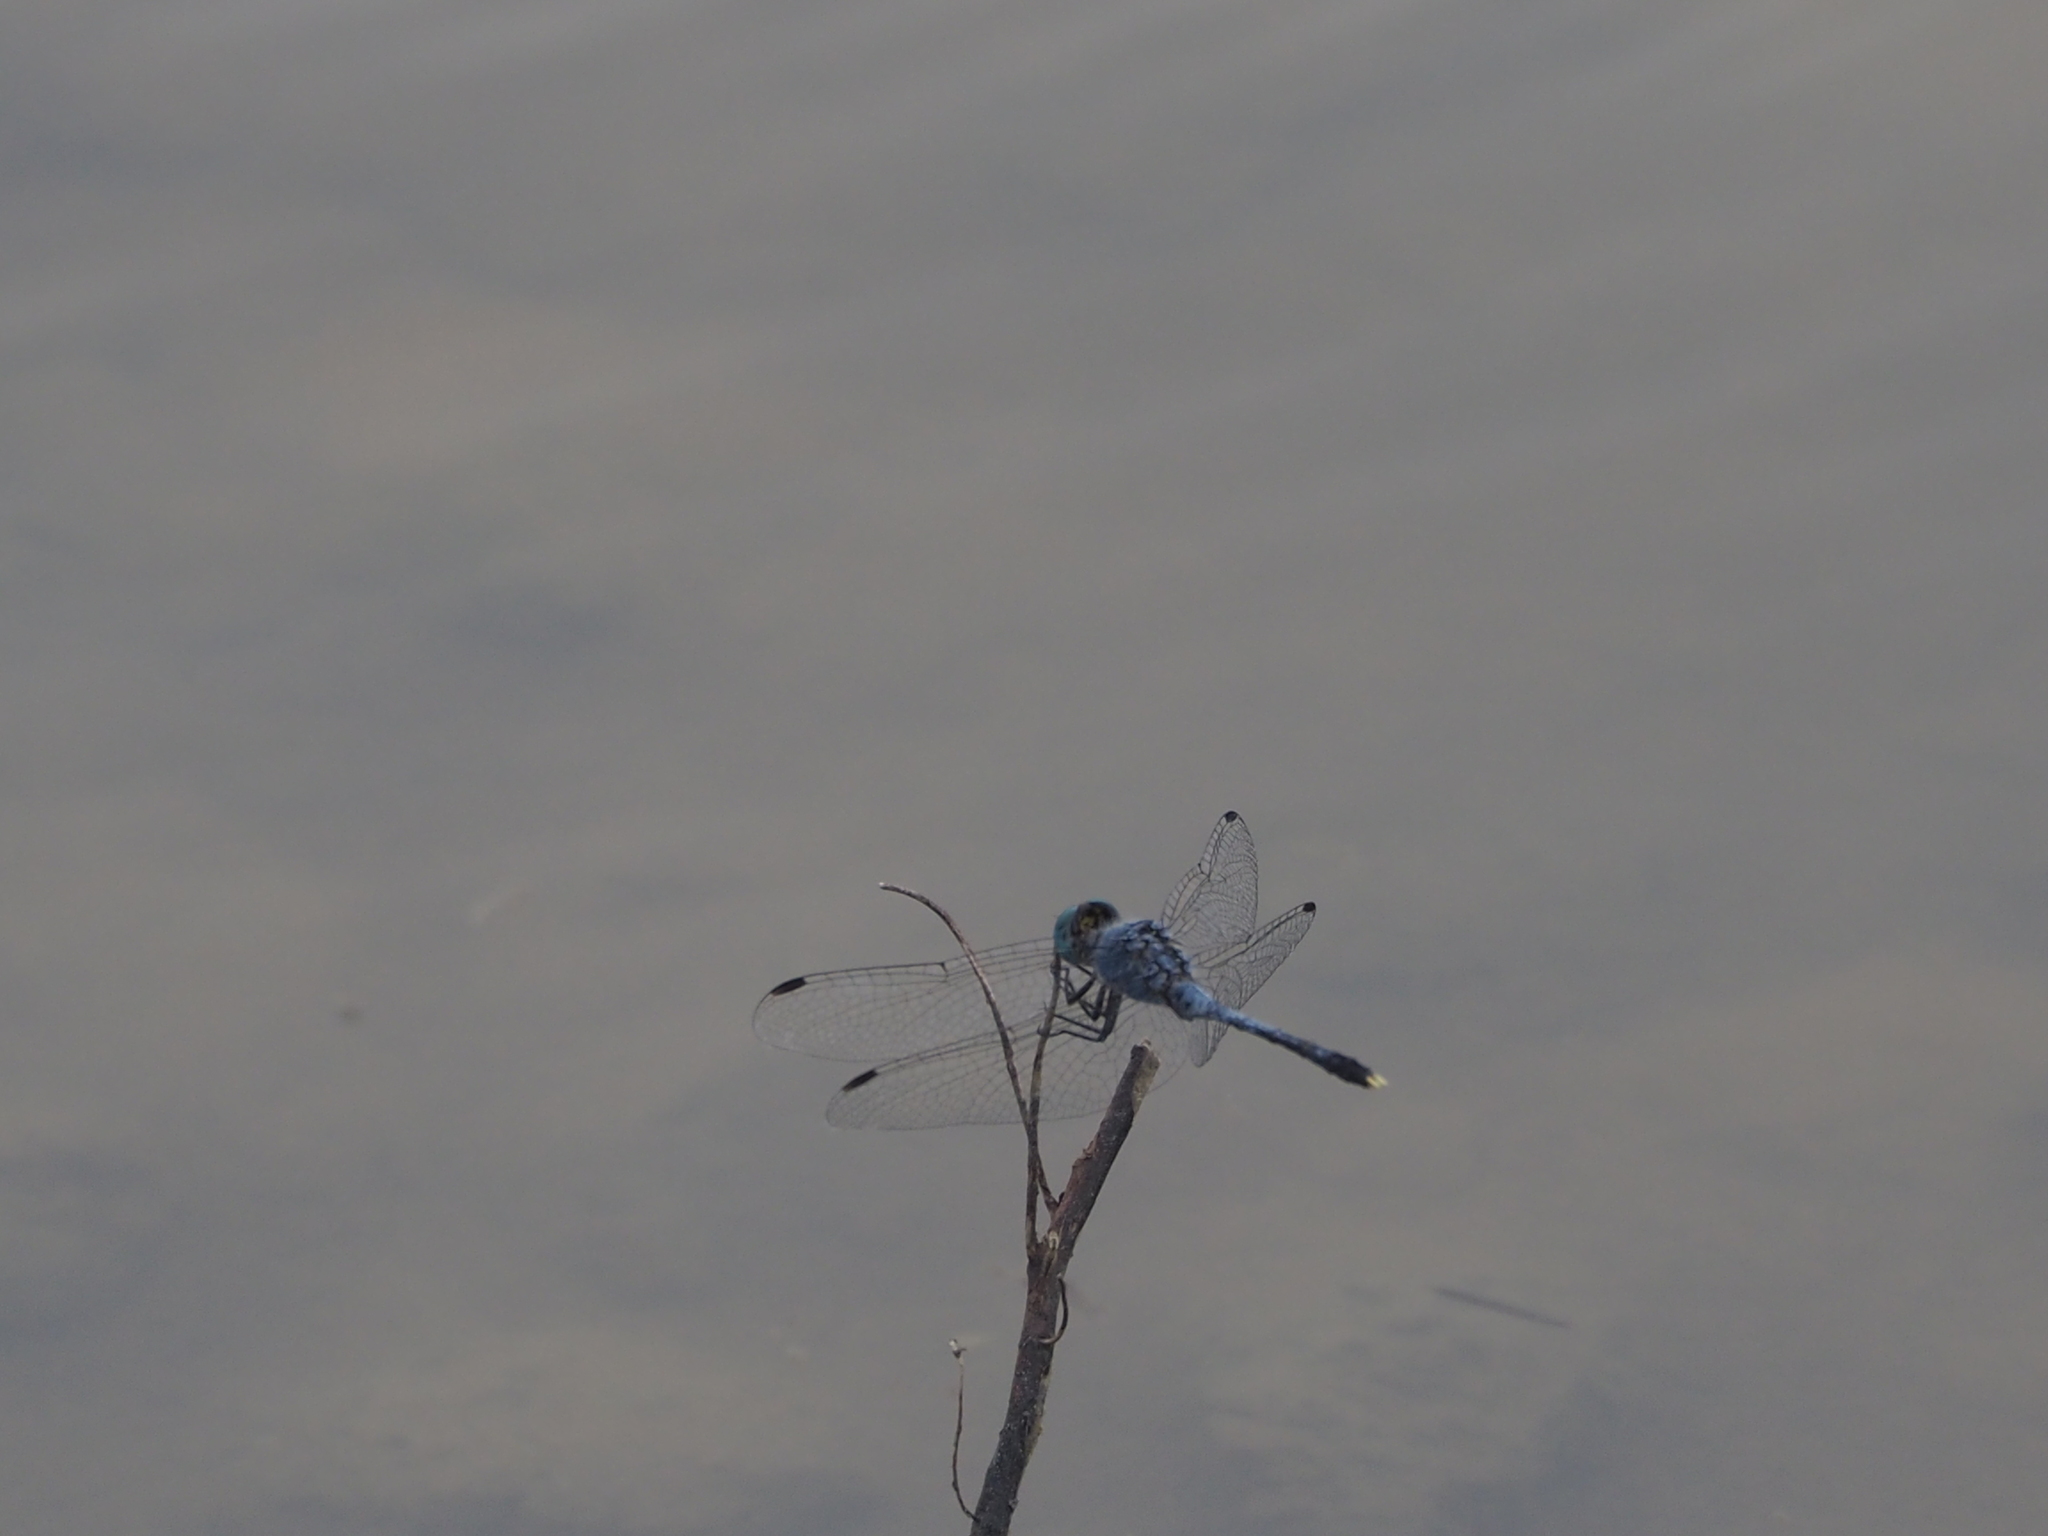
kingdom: Animalia
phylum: Arthropoda
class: Insecta
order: Odonata
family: Libellulidae
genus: Diplacodes
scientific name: Diplacodes trivialis
